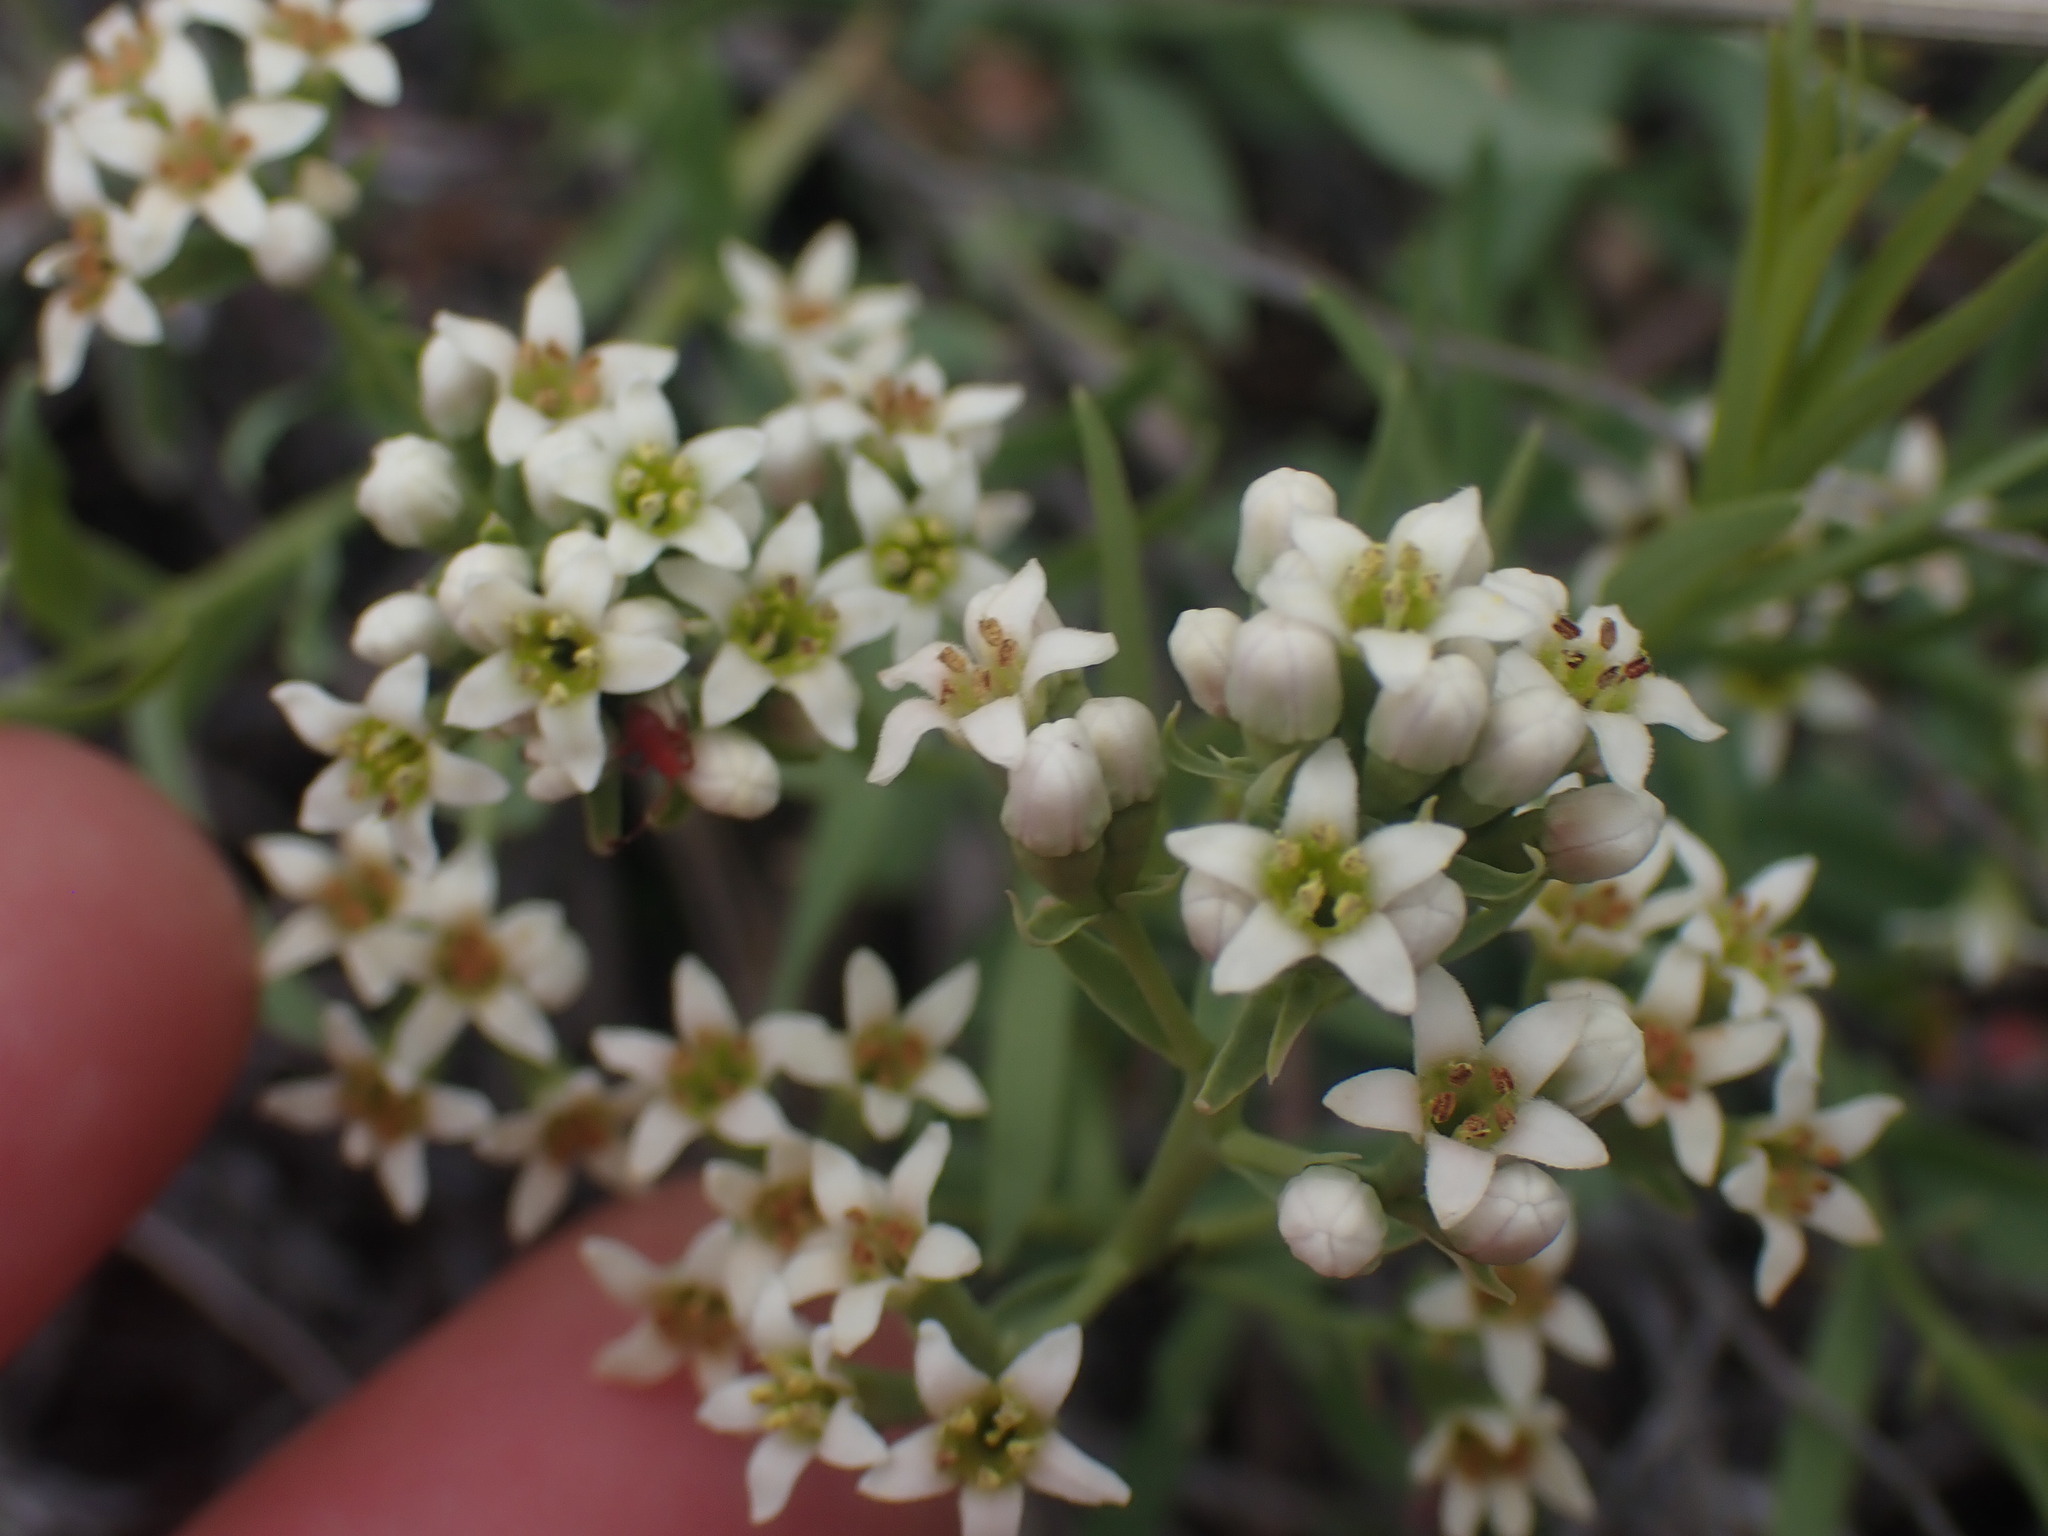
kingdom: Plantae
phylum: Tracheophyta
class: Magnoliopsida
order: Santalales
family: Comandraceae
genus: Comandra
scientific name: Comandra umbellata
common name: Bastard toadflax
